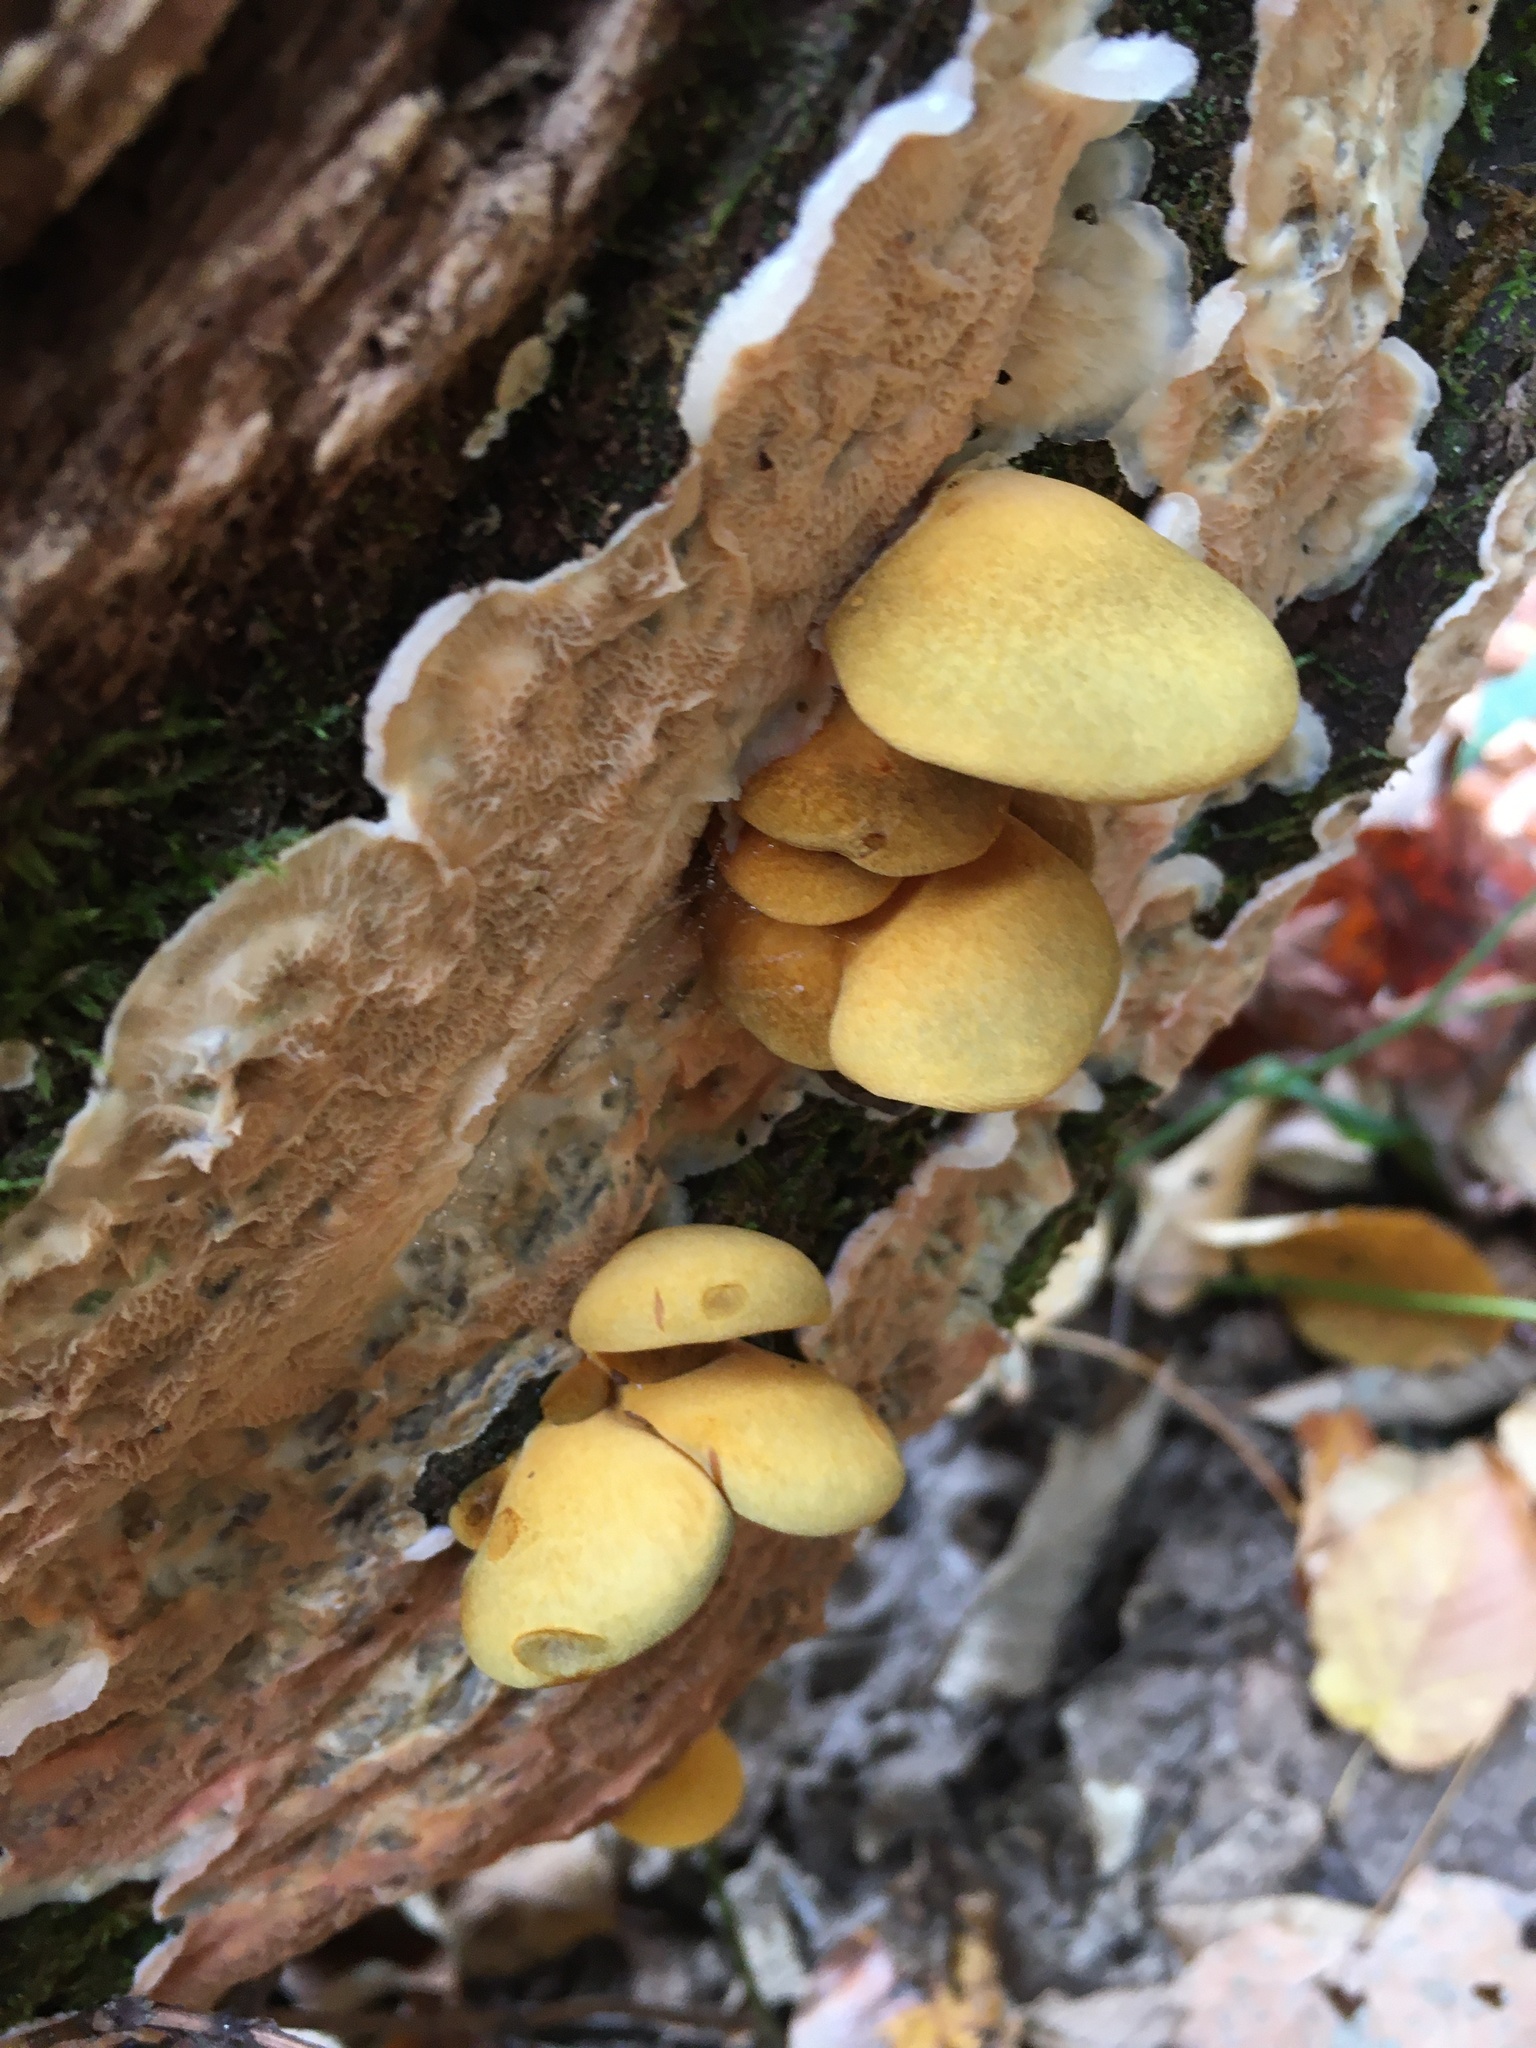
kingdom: Fungi
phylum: Basidiomycota
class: Agaricomycetes
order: Agaricales
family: Sarcomyxaceae
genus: Sarcomyxa
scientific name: Sarcomyxa serotina
